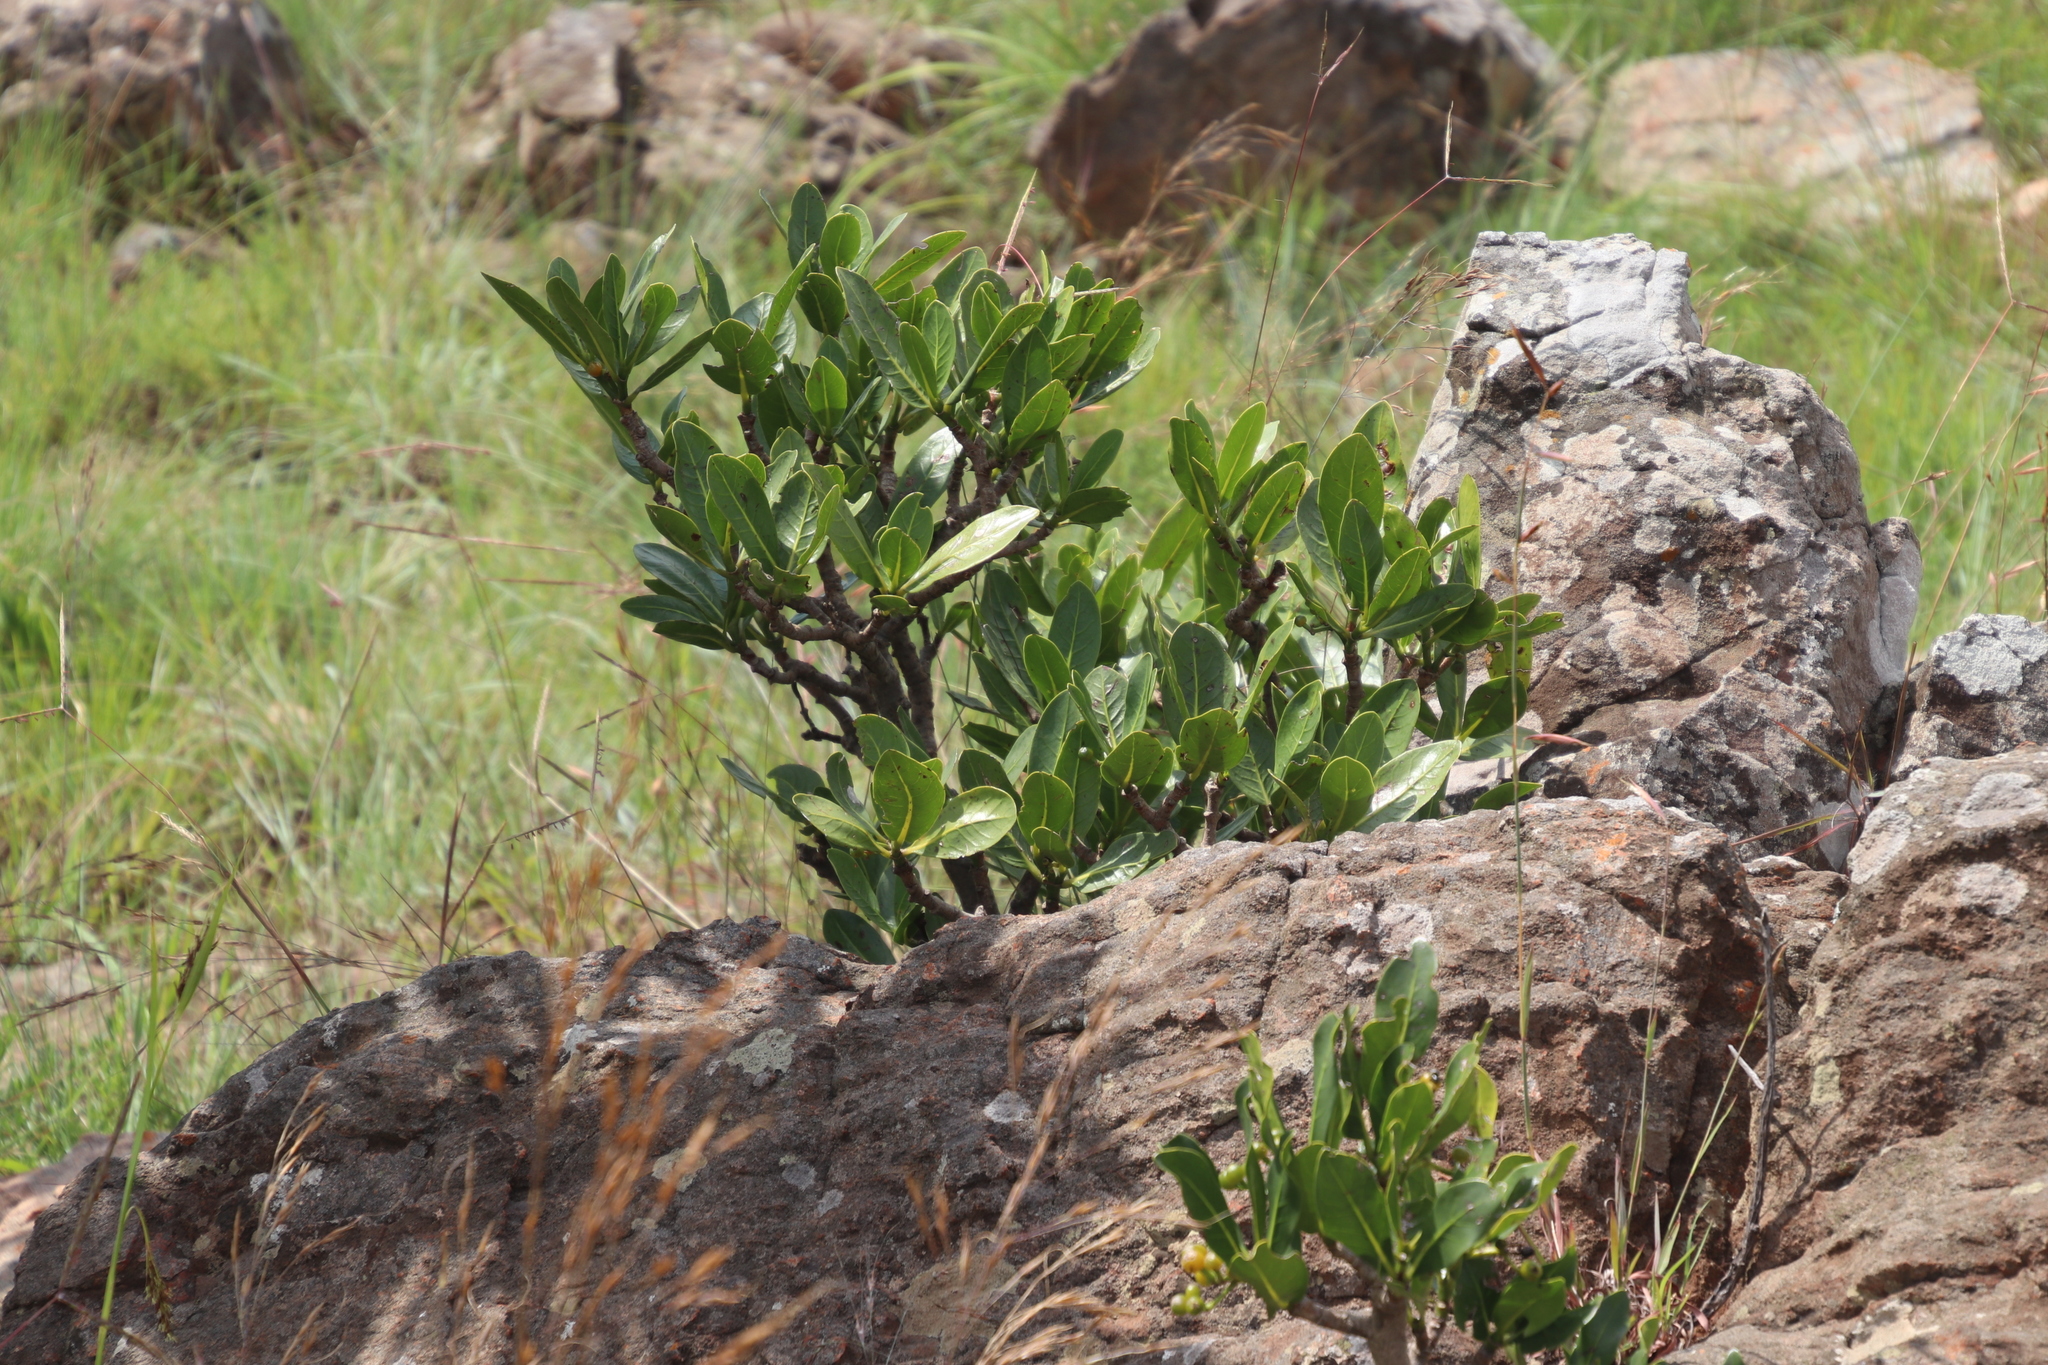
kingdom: Plantae
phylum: Tracheophyta
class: Magnoliopsida
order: Gentianales
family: Rubiaceae
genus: Psychotria
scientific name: Psychotria
